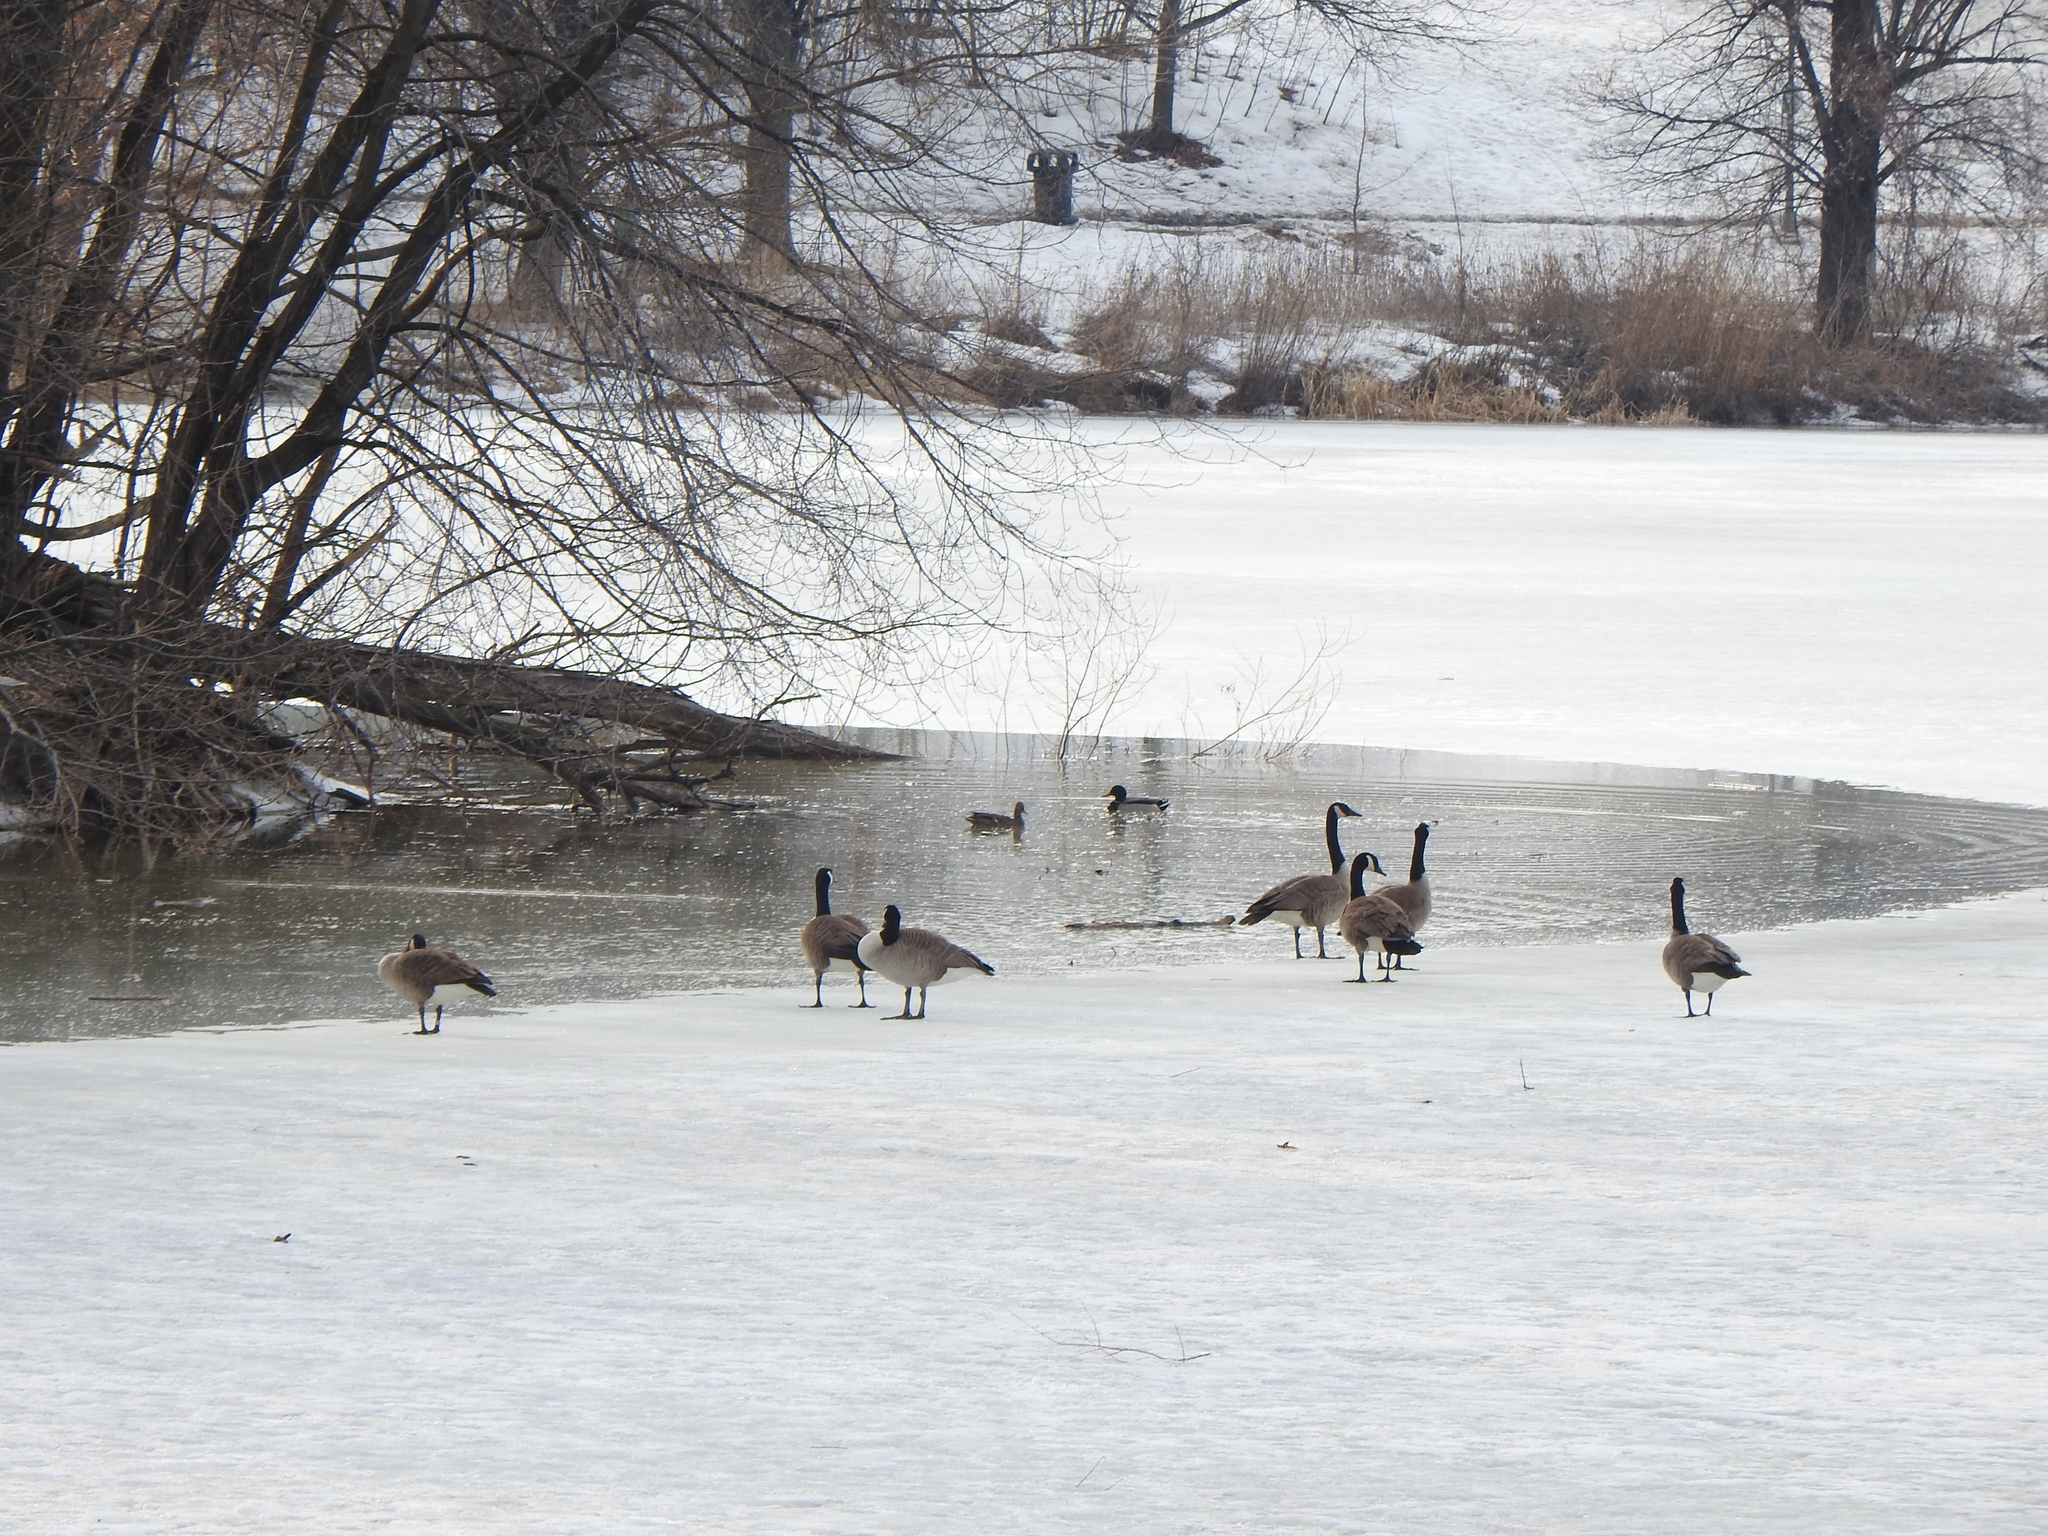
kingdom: Animalia
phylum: Chordata
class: Aves
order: Anseriformes
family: Anatidae
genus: Branta
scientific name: Branta canadensis
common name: Canada goose
